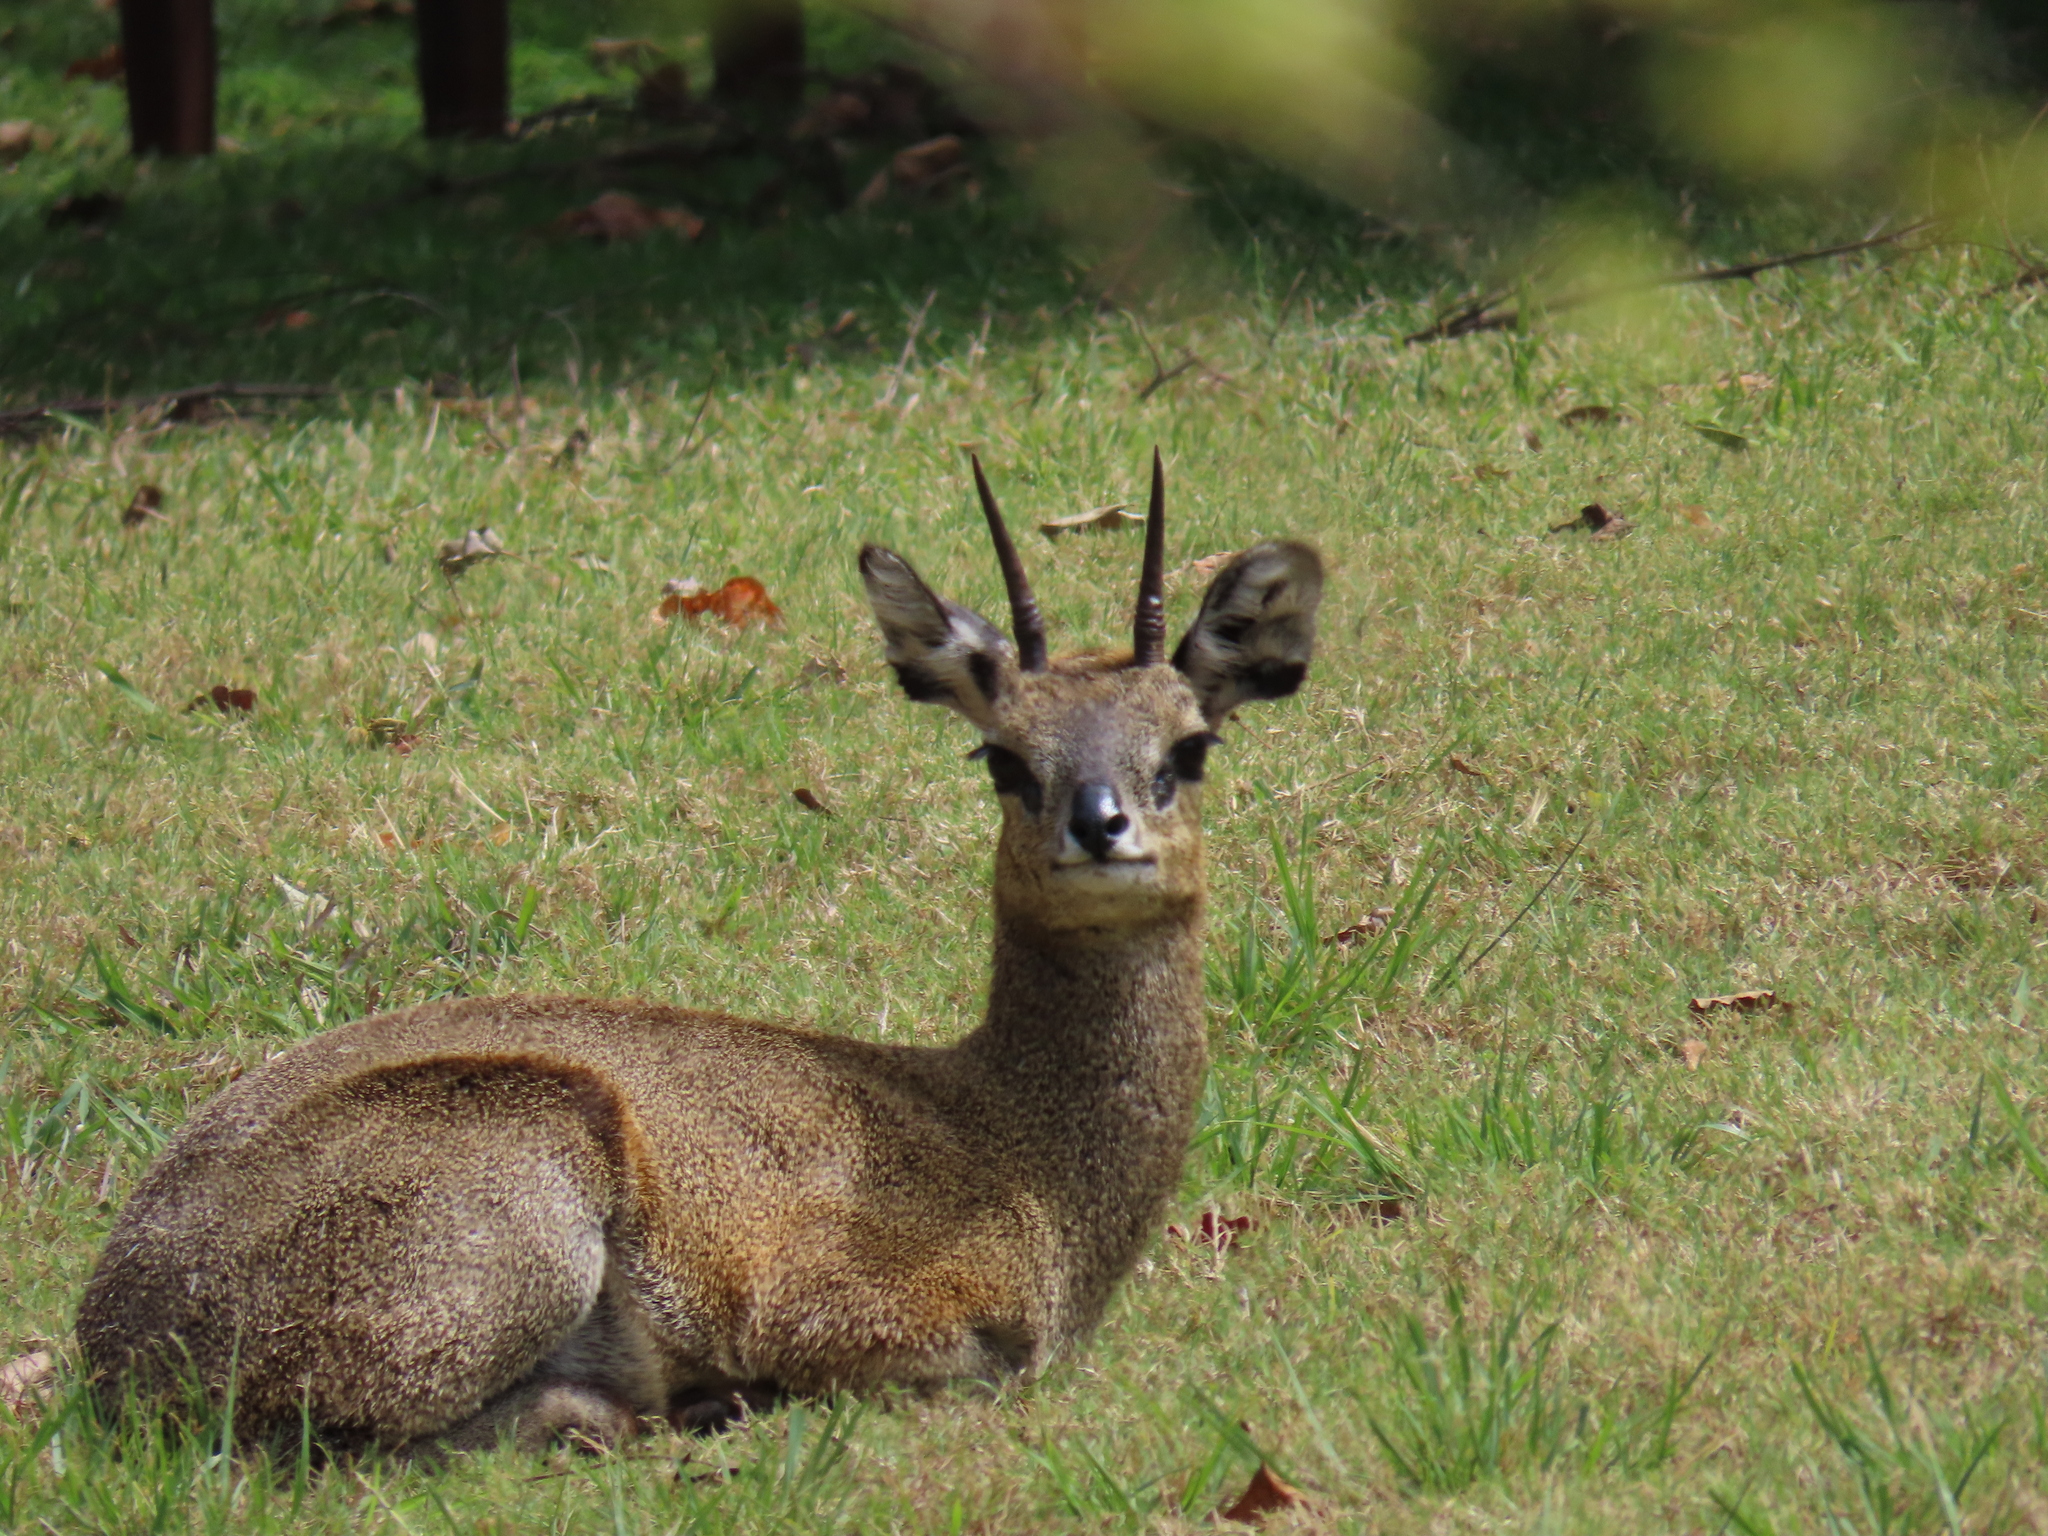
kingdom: Animalia
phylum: Chordata
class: Mammalia
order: Artiodactyla
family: Bovidae
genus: Oreotragus
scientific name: Oreotragus oreotragus
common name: Klipspringer
